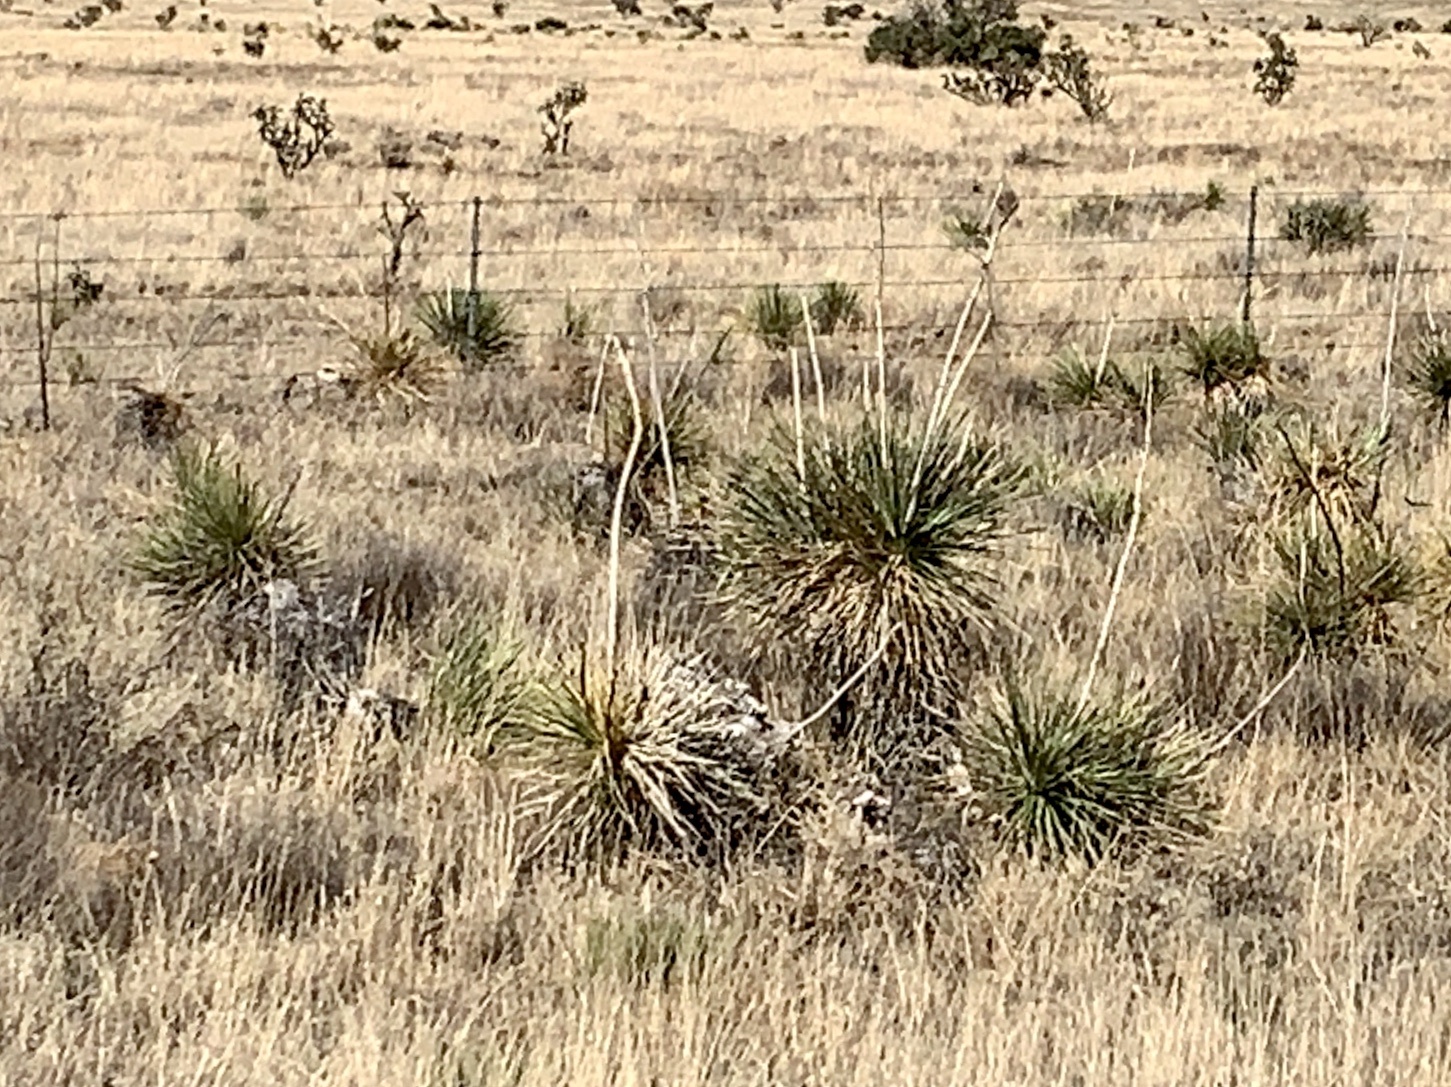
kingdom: Plantae
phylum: Tracheophyta
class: Liliopsida
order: Asparagales
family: Asparagaceae
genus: Yucca
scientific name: Yucca elata
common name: Palmella
